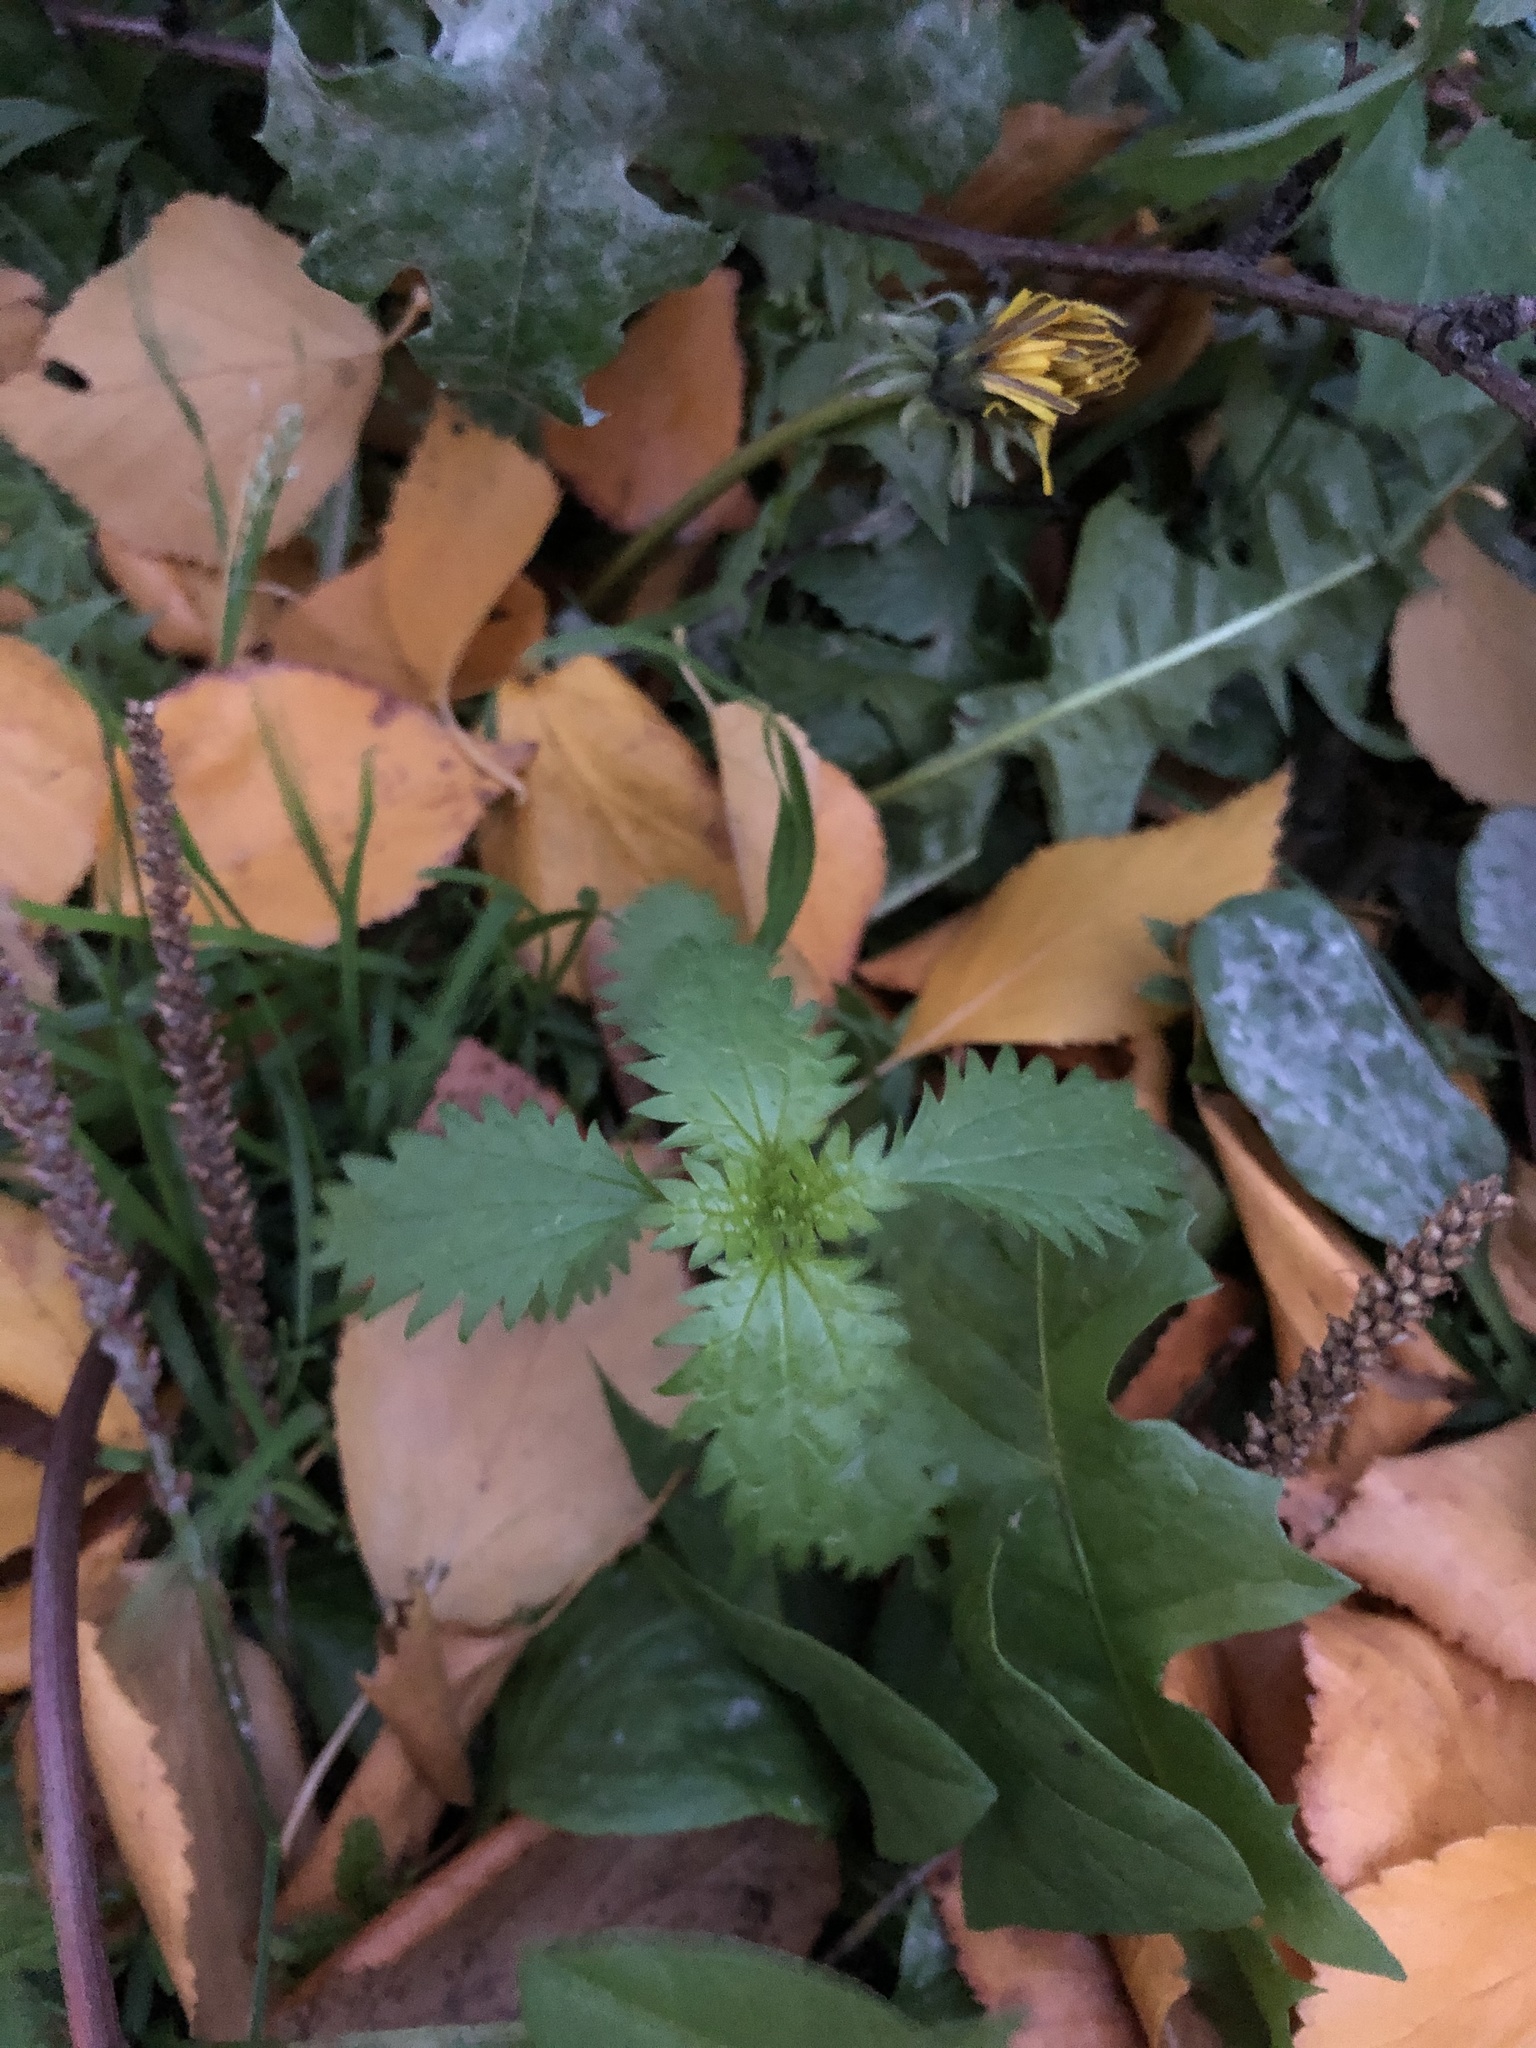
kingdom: Plantae
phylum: Tracheophyta
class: Magnoliopsida
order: Rosales
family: Urticaceae
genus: Urtica
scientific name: Urtica urens
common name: Dwarf nettle
